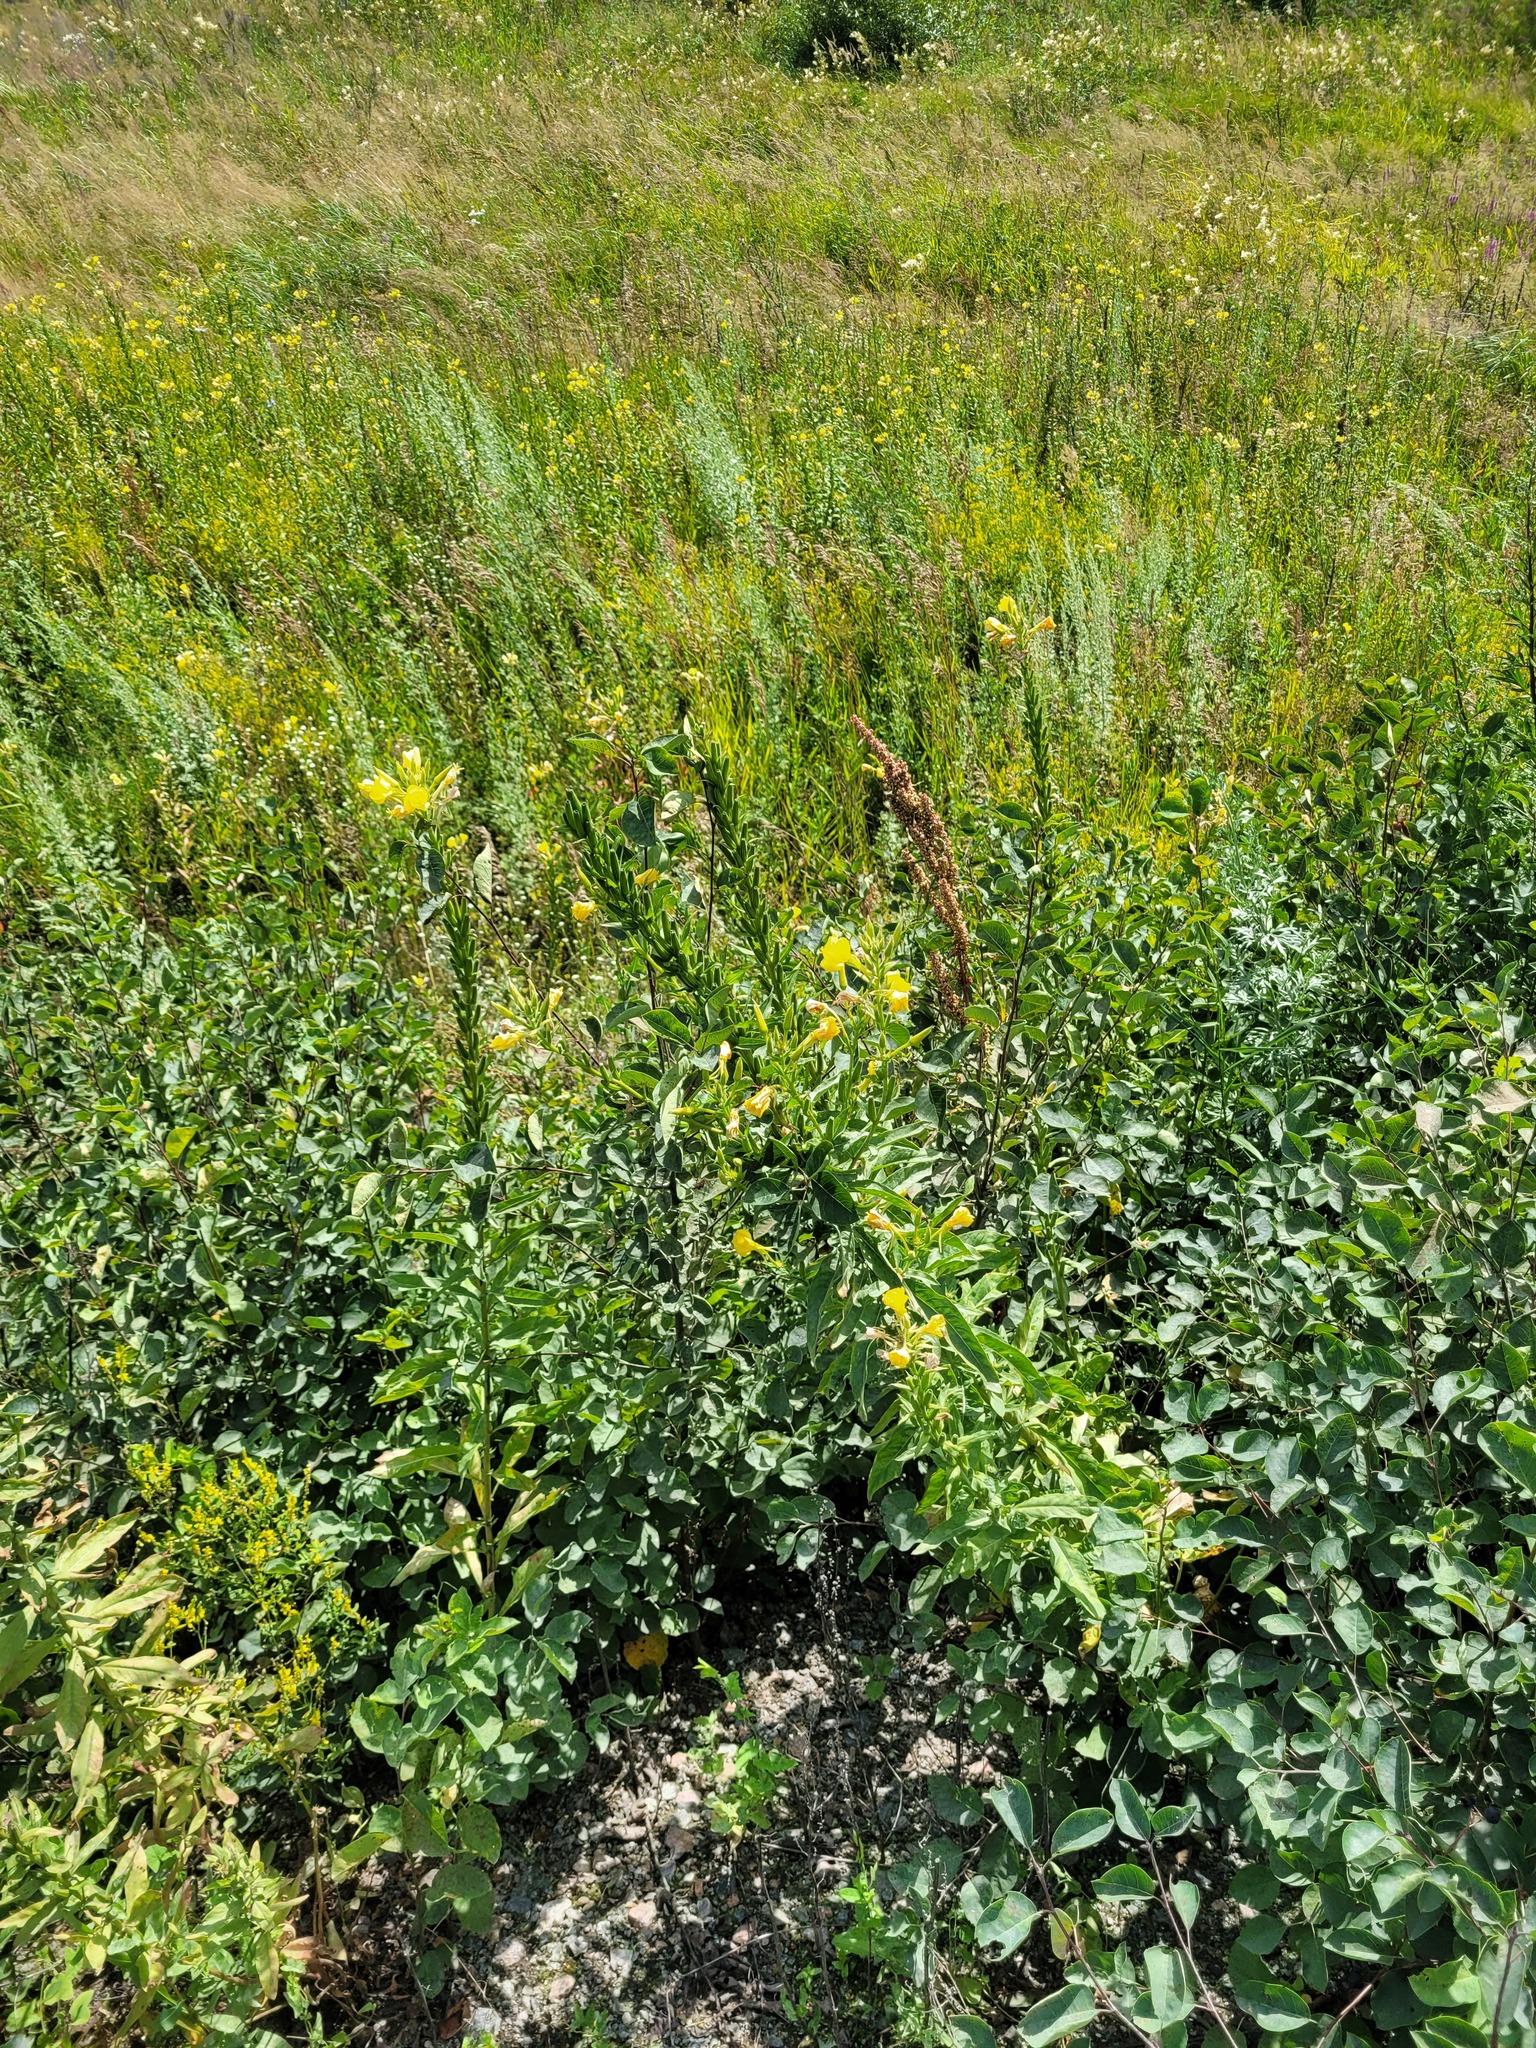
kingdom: Plantae
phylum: Tracheophyta
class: Magnoliopsida
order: Myrtales
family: Onagraceae
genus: Oenothera
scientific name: Oenothera biennis
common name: Common evening-primrose
